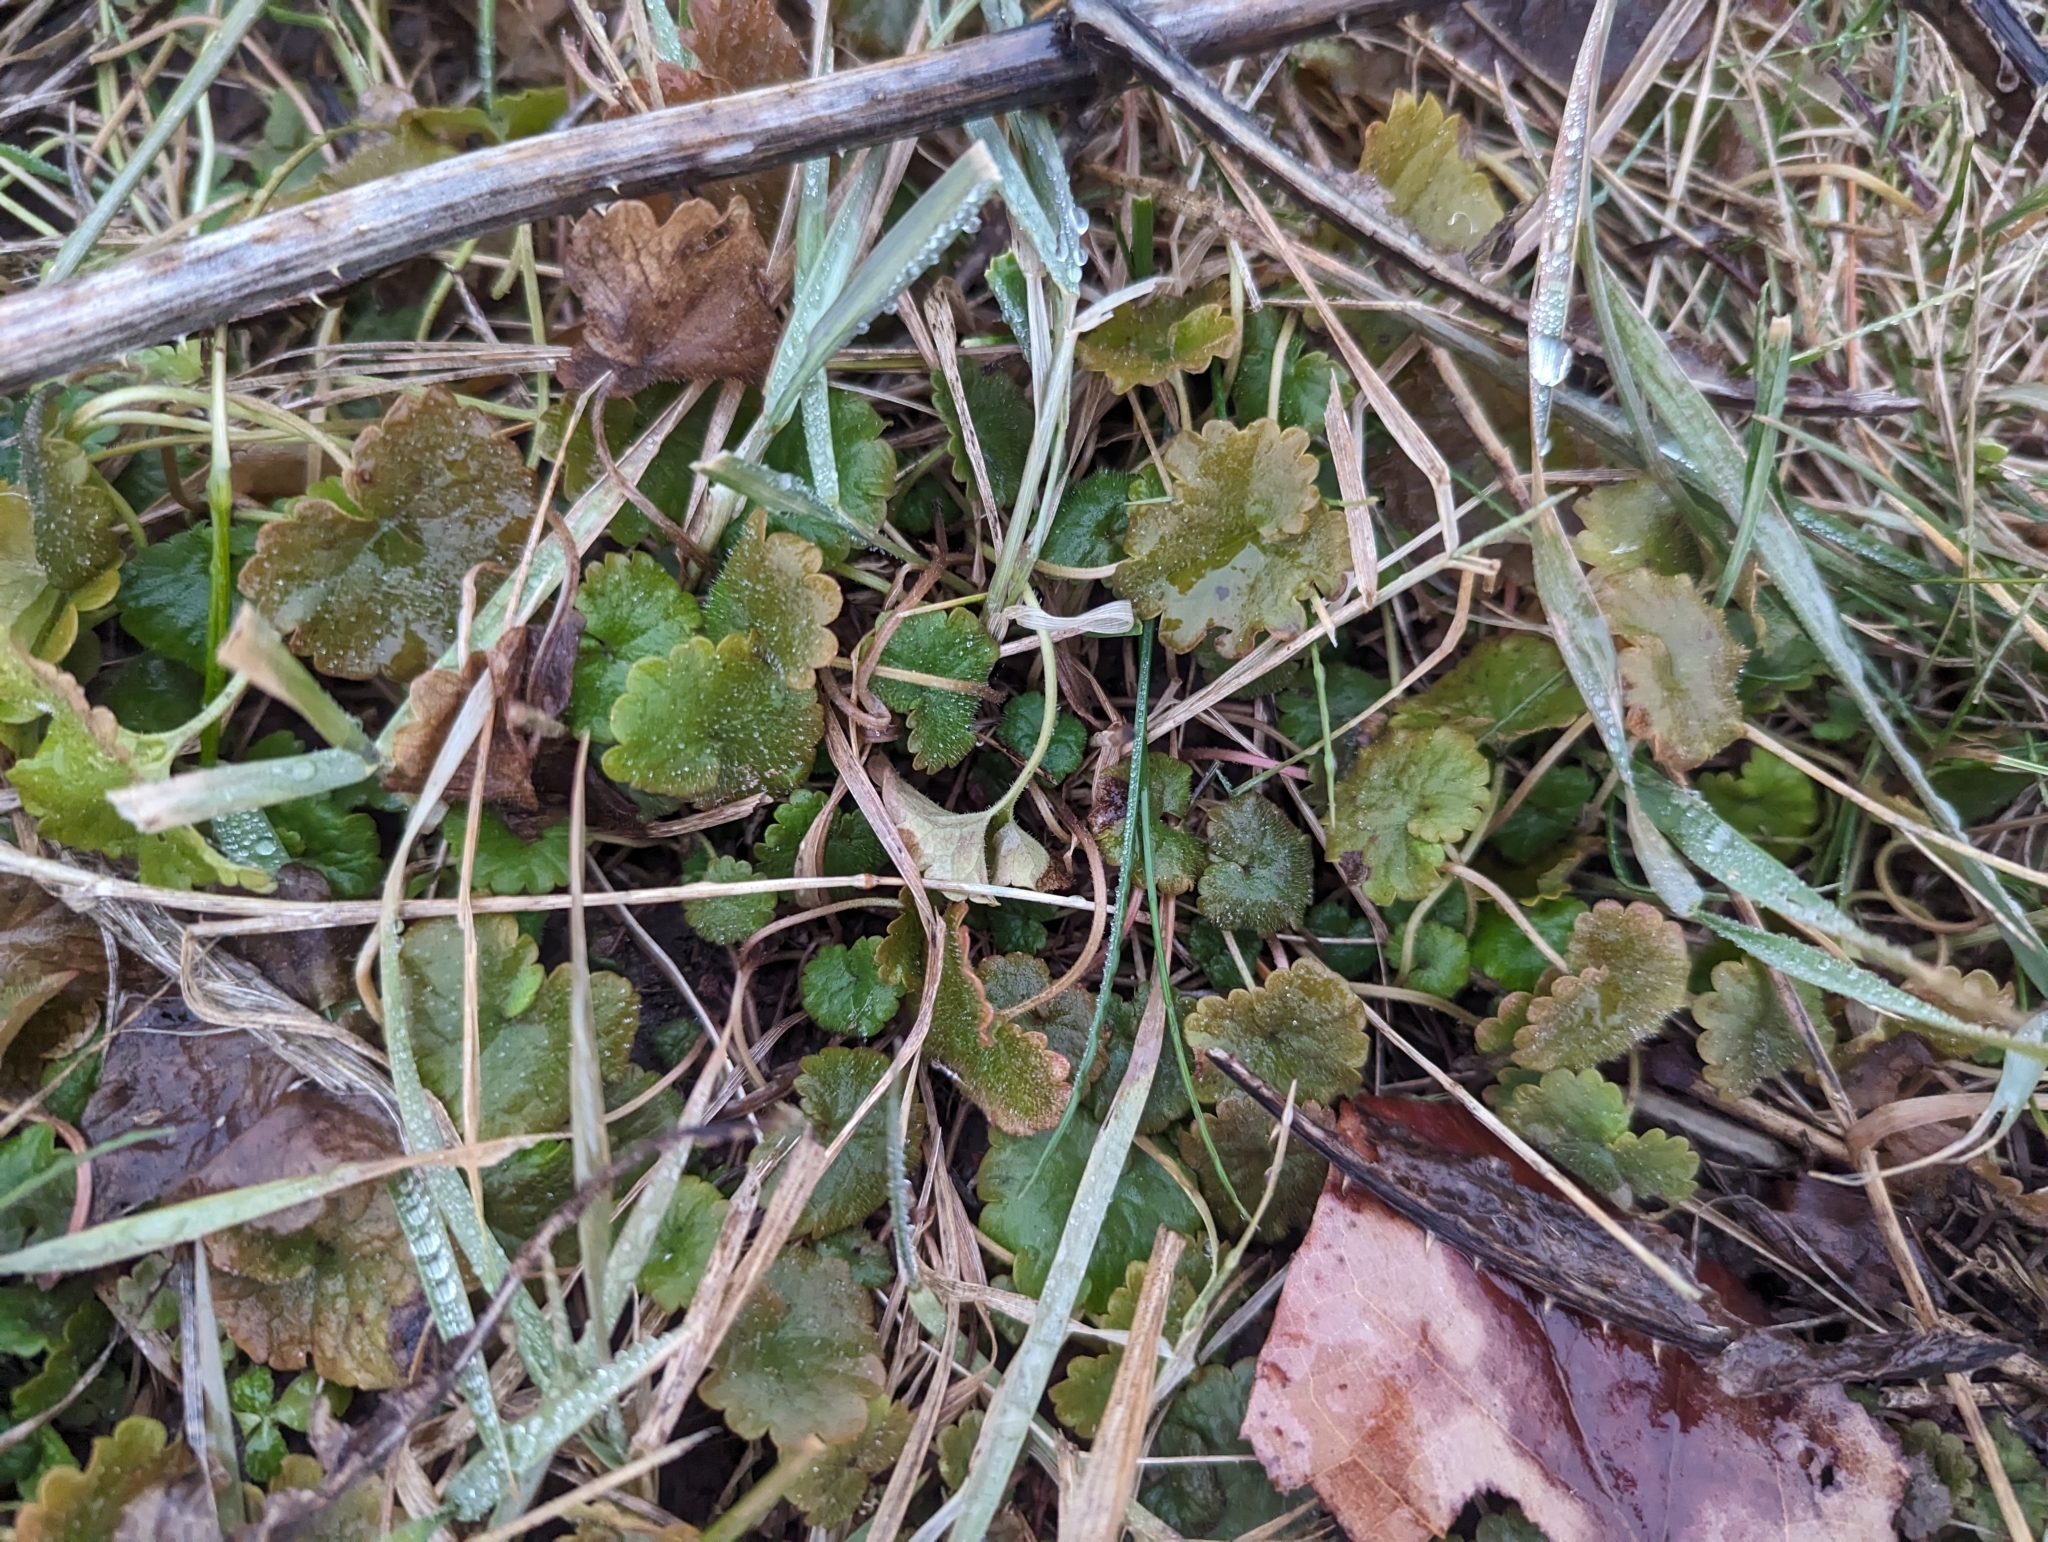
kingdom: Plantae
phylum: Tracheophyta
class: Magnoliopsida
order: Lamiales
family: Lamiaceae
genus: Glechoma
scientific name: Glechoma hederacea
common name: Ground ivy
